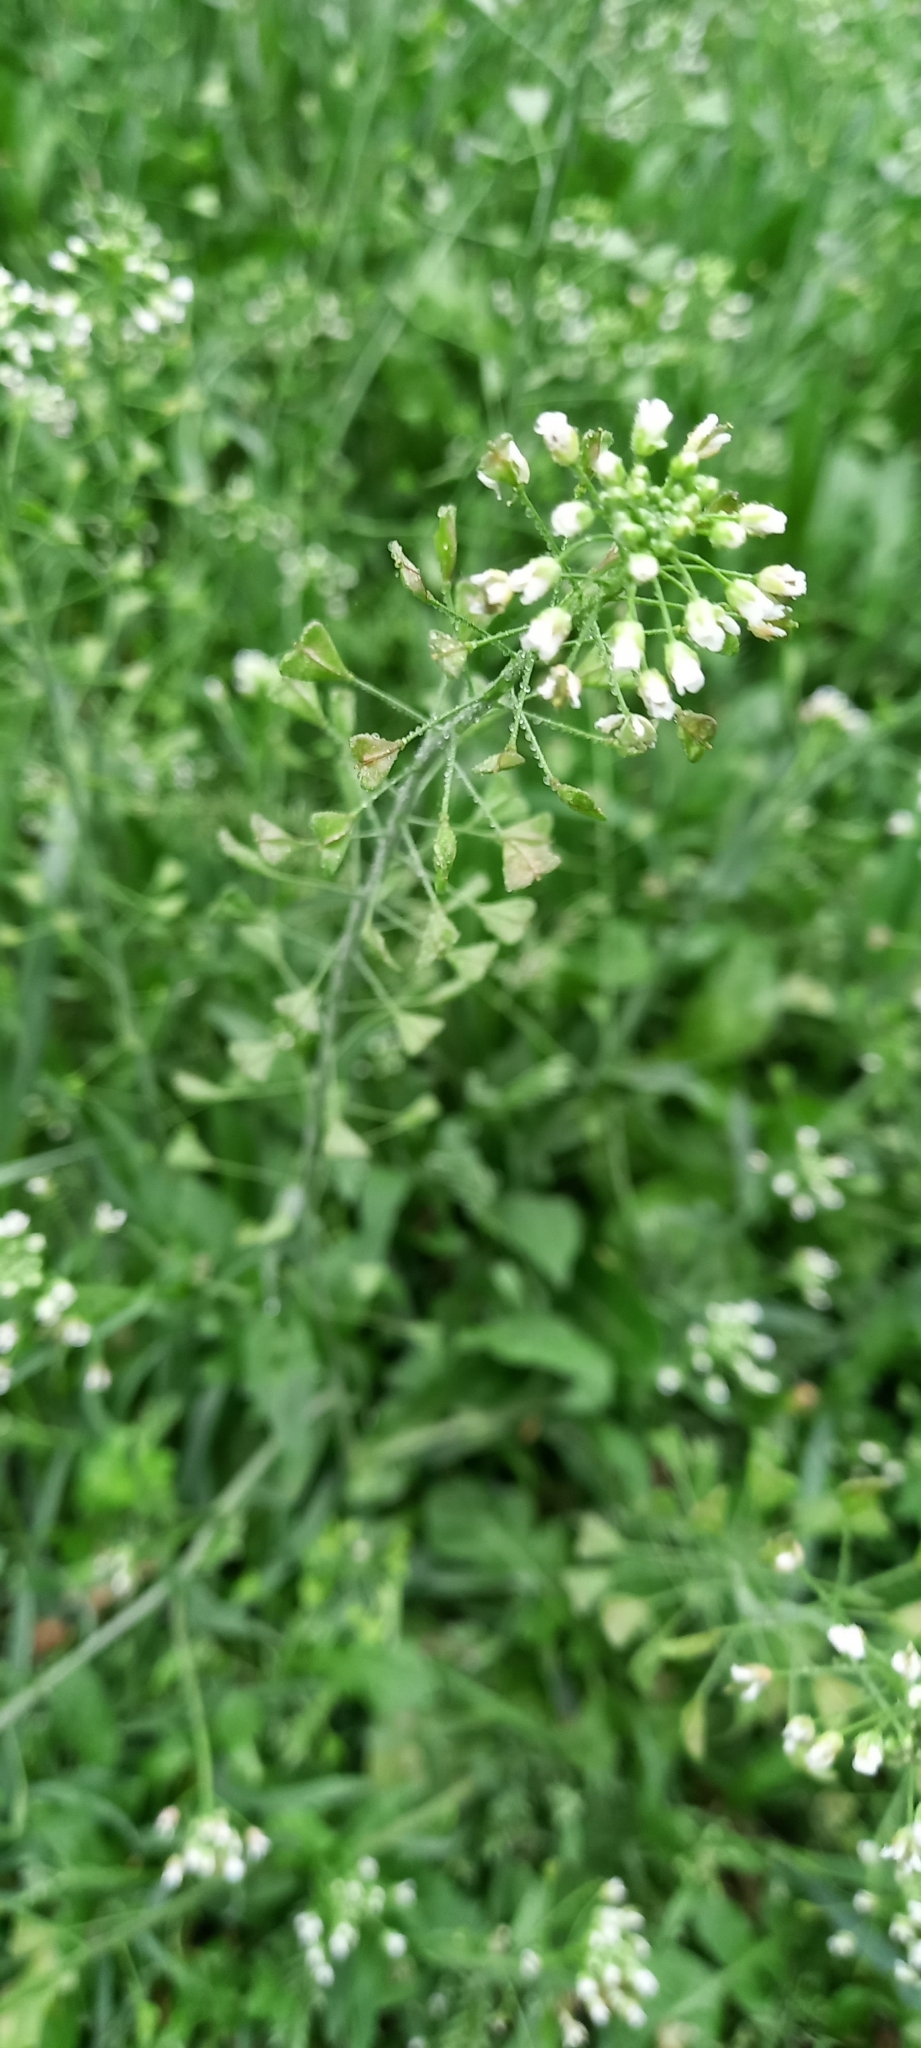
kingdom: Plantae
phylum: Tracheophyta
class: Magnoliopsida
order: Brassicales
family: Brassicaceae
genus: Capsella
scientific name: Capsella bursa-pastoris
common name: Shepherd's purse
